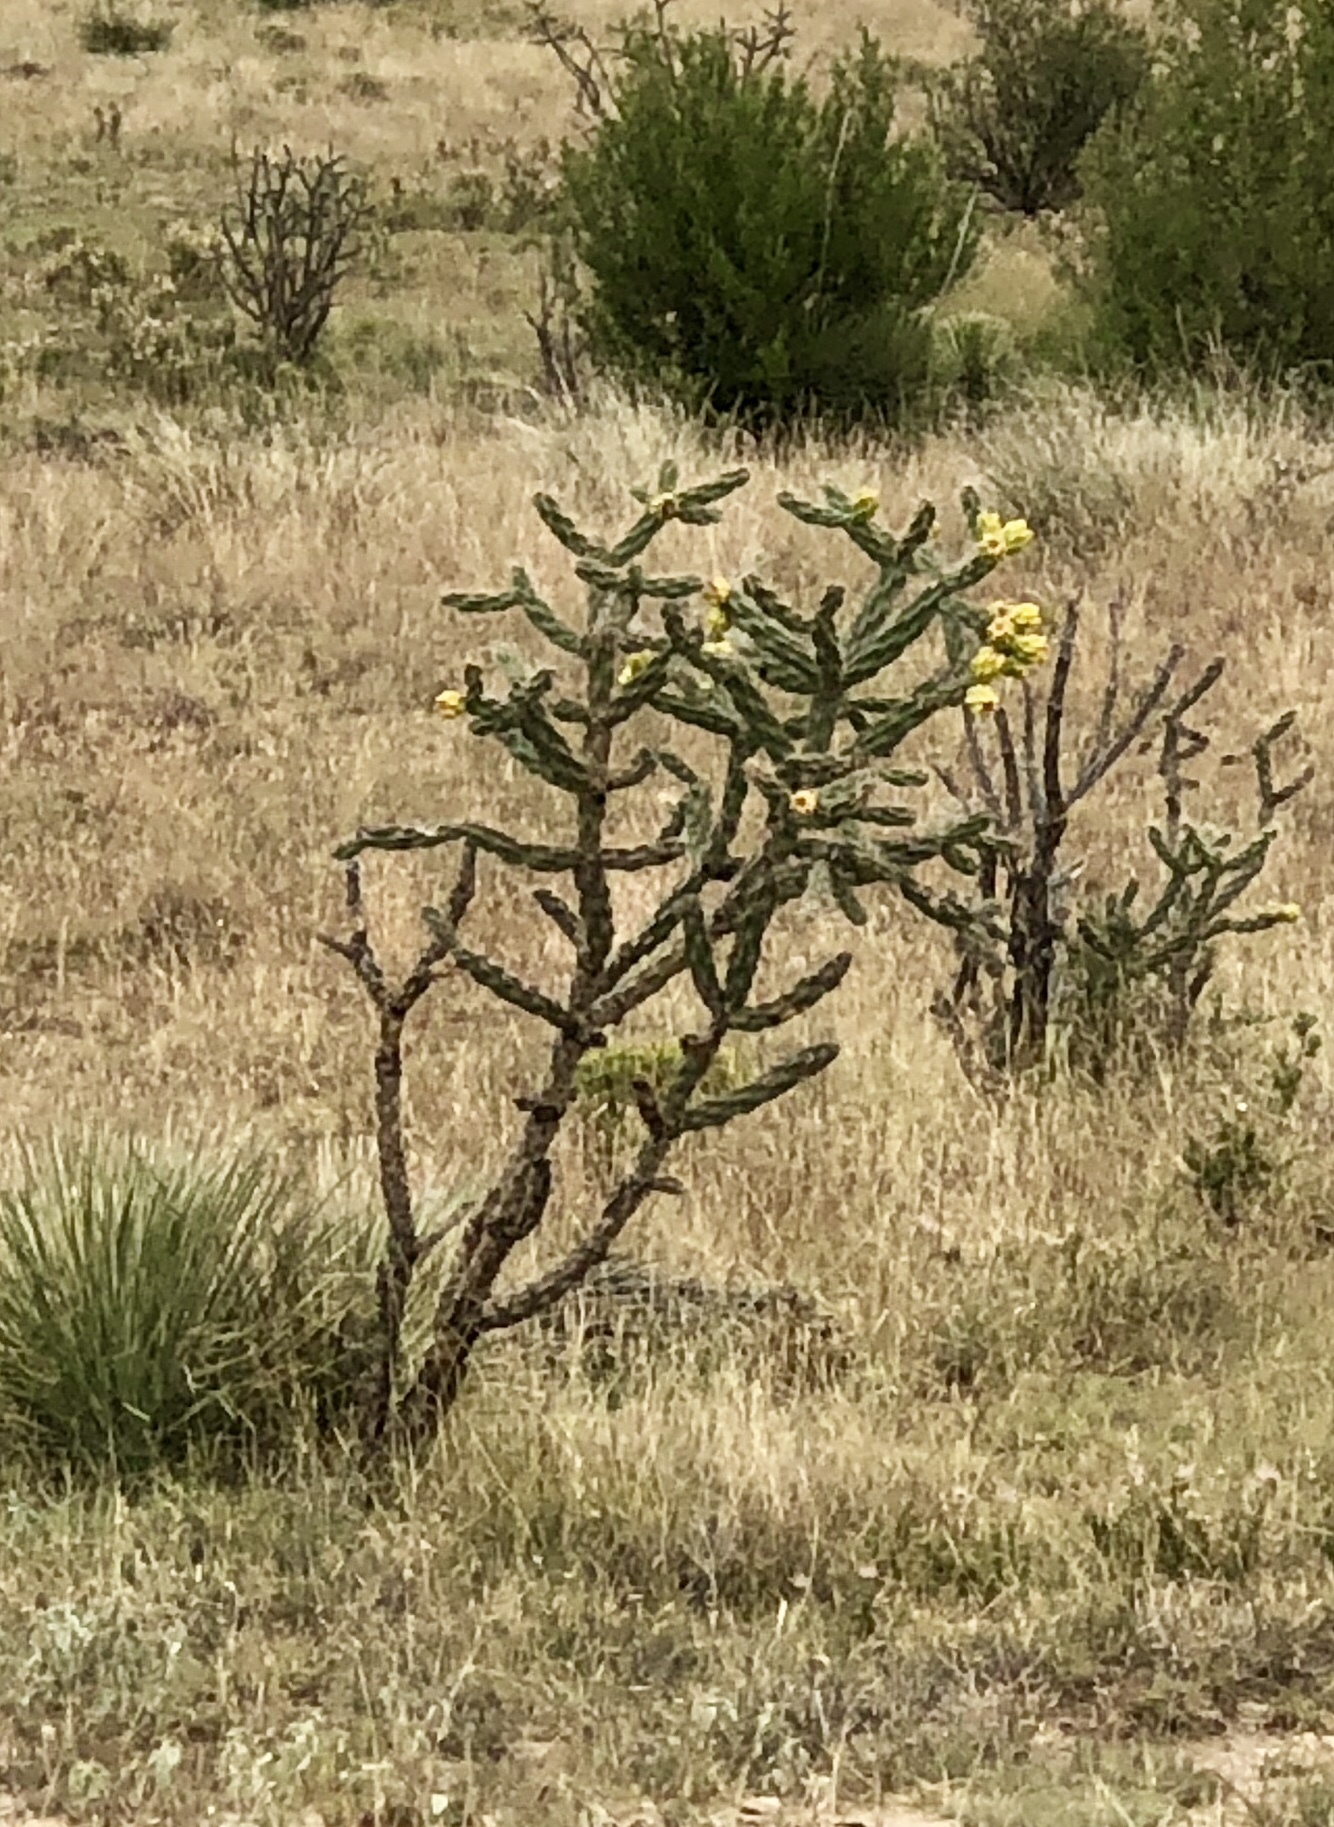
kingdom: Plantae
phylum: Tracheophyta
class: Magnoliopsida
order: Caryophyllales
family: Cactaceae
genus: Cylindropuntia
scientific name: Cylindropuntia imbricata
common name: Candelabrum cactus
